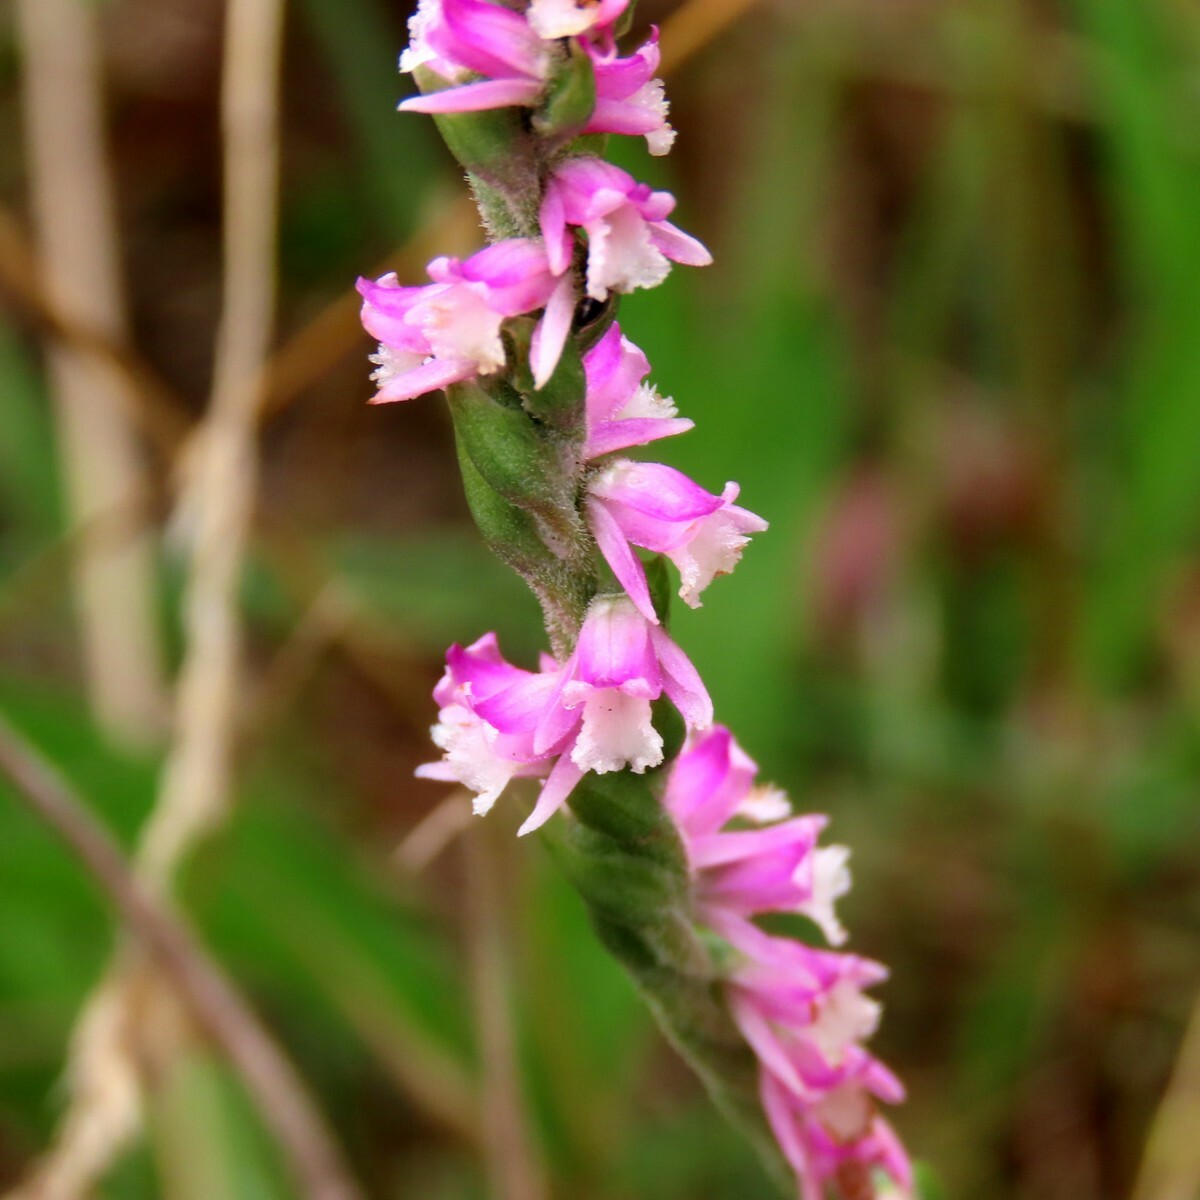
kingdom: Plantae
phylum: Tracheophyta
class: Liliopsida
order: Asparagales
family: Orchidaceae
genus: Spiranthes
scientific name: Spiranthes australis
